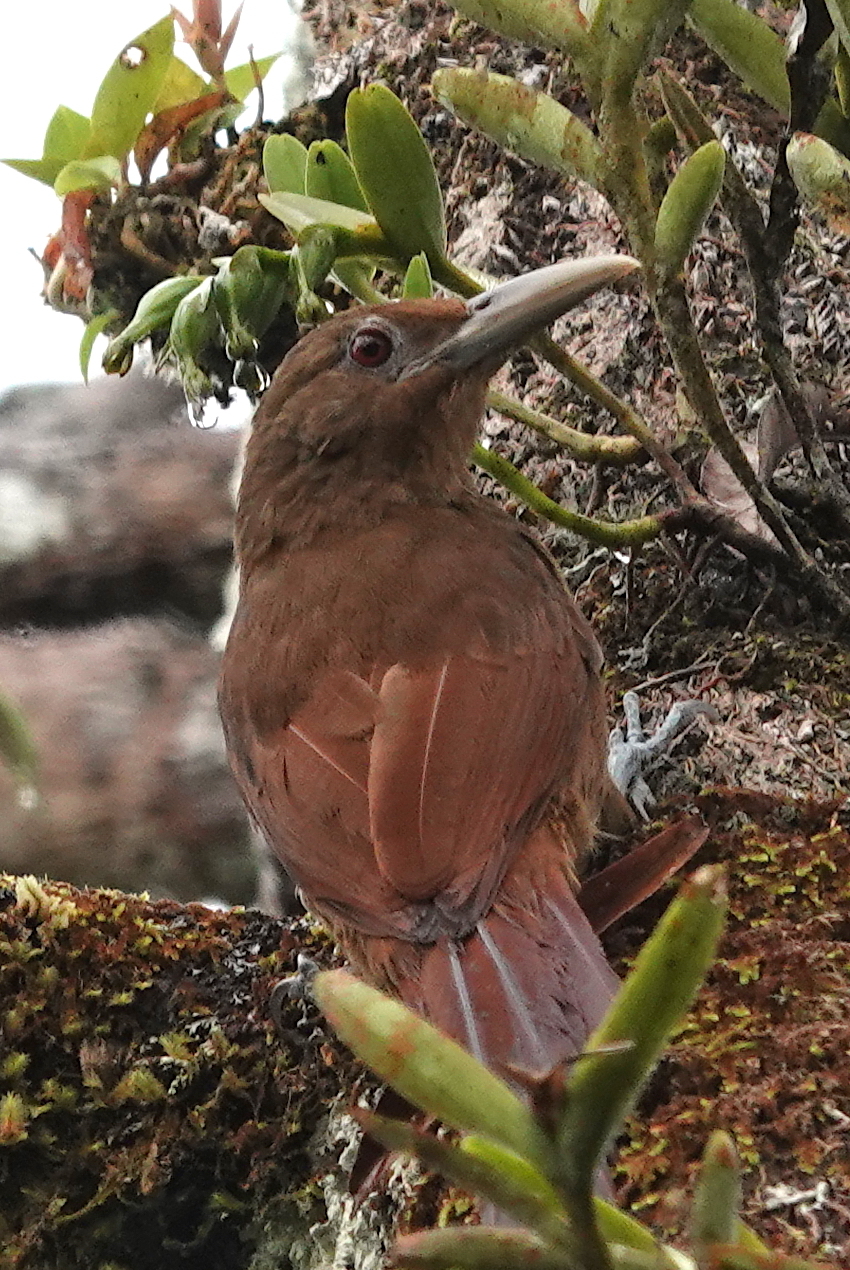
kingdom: Animalia
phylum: Chordata
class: Aves
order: Passeriformes
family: Furnariidae
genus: Dendrexetastes
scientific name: Dendrexetastes rufigula
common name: Cinnamon-throated woodcreeper
